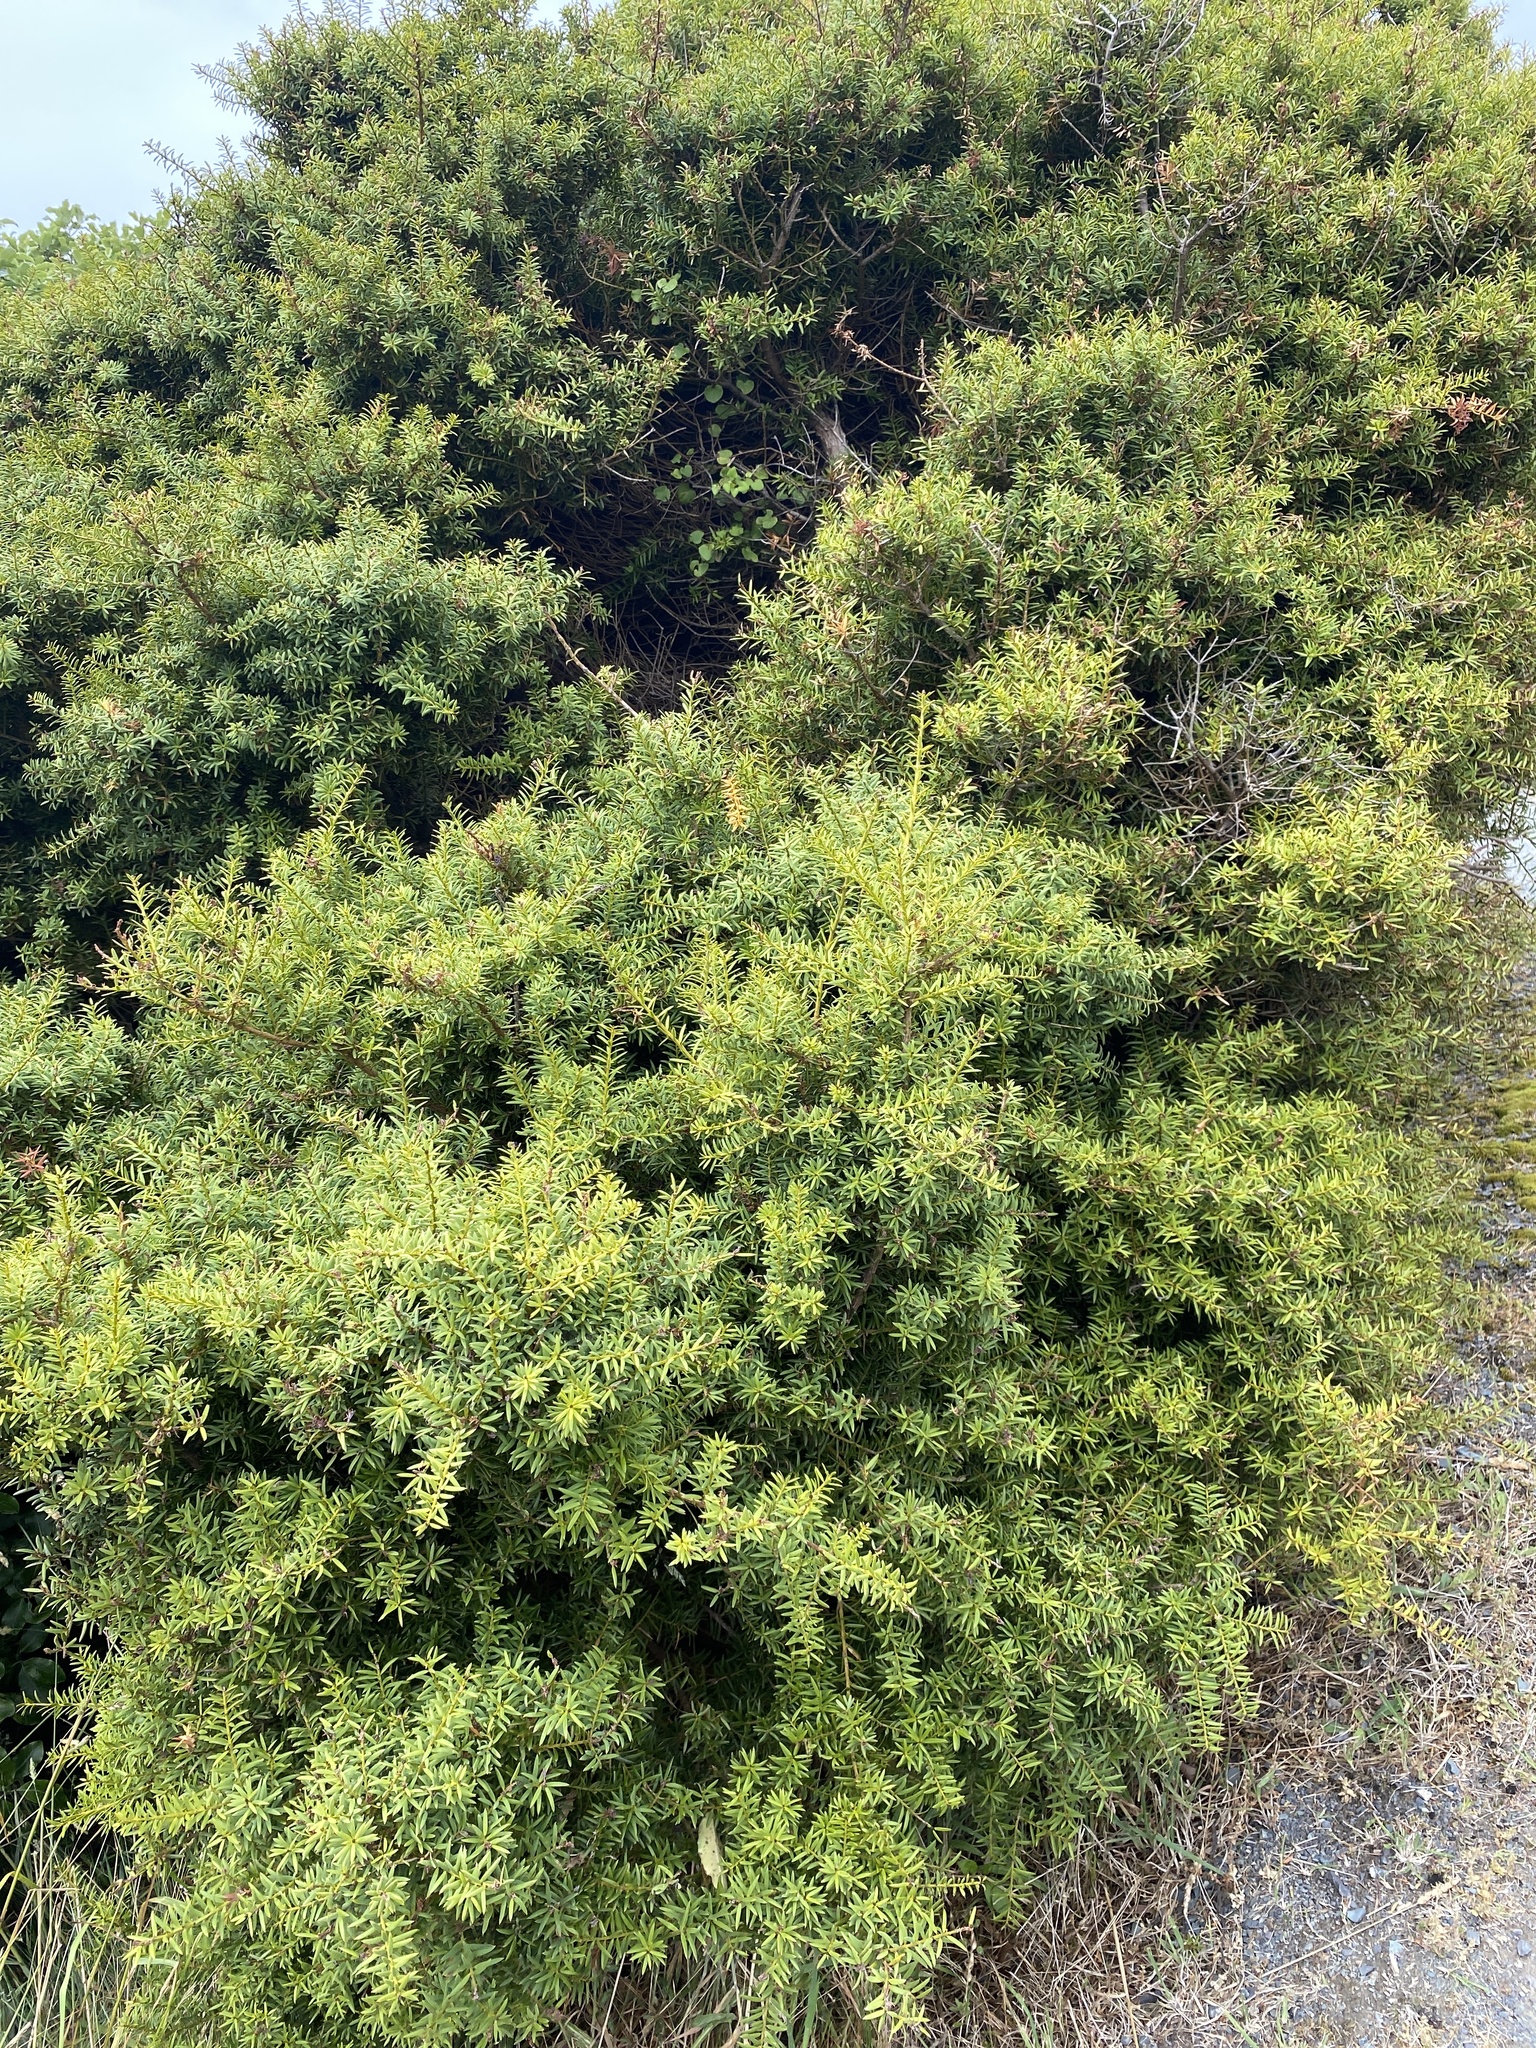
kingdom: Plantae
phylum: Tracheophyta
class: Pinopsida
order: Pinales
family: Podocarpaceae
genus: Podocarpus
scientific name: Podocarpus totara
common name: Totara
